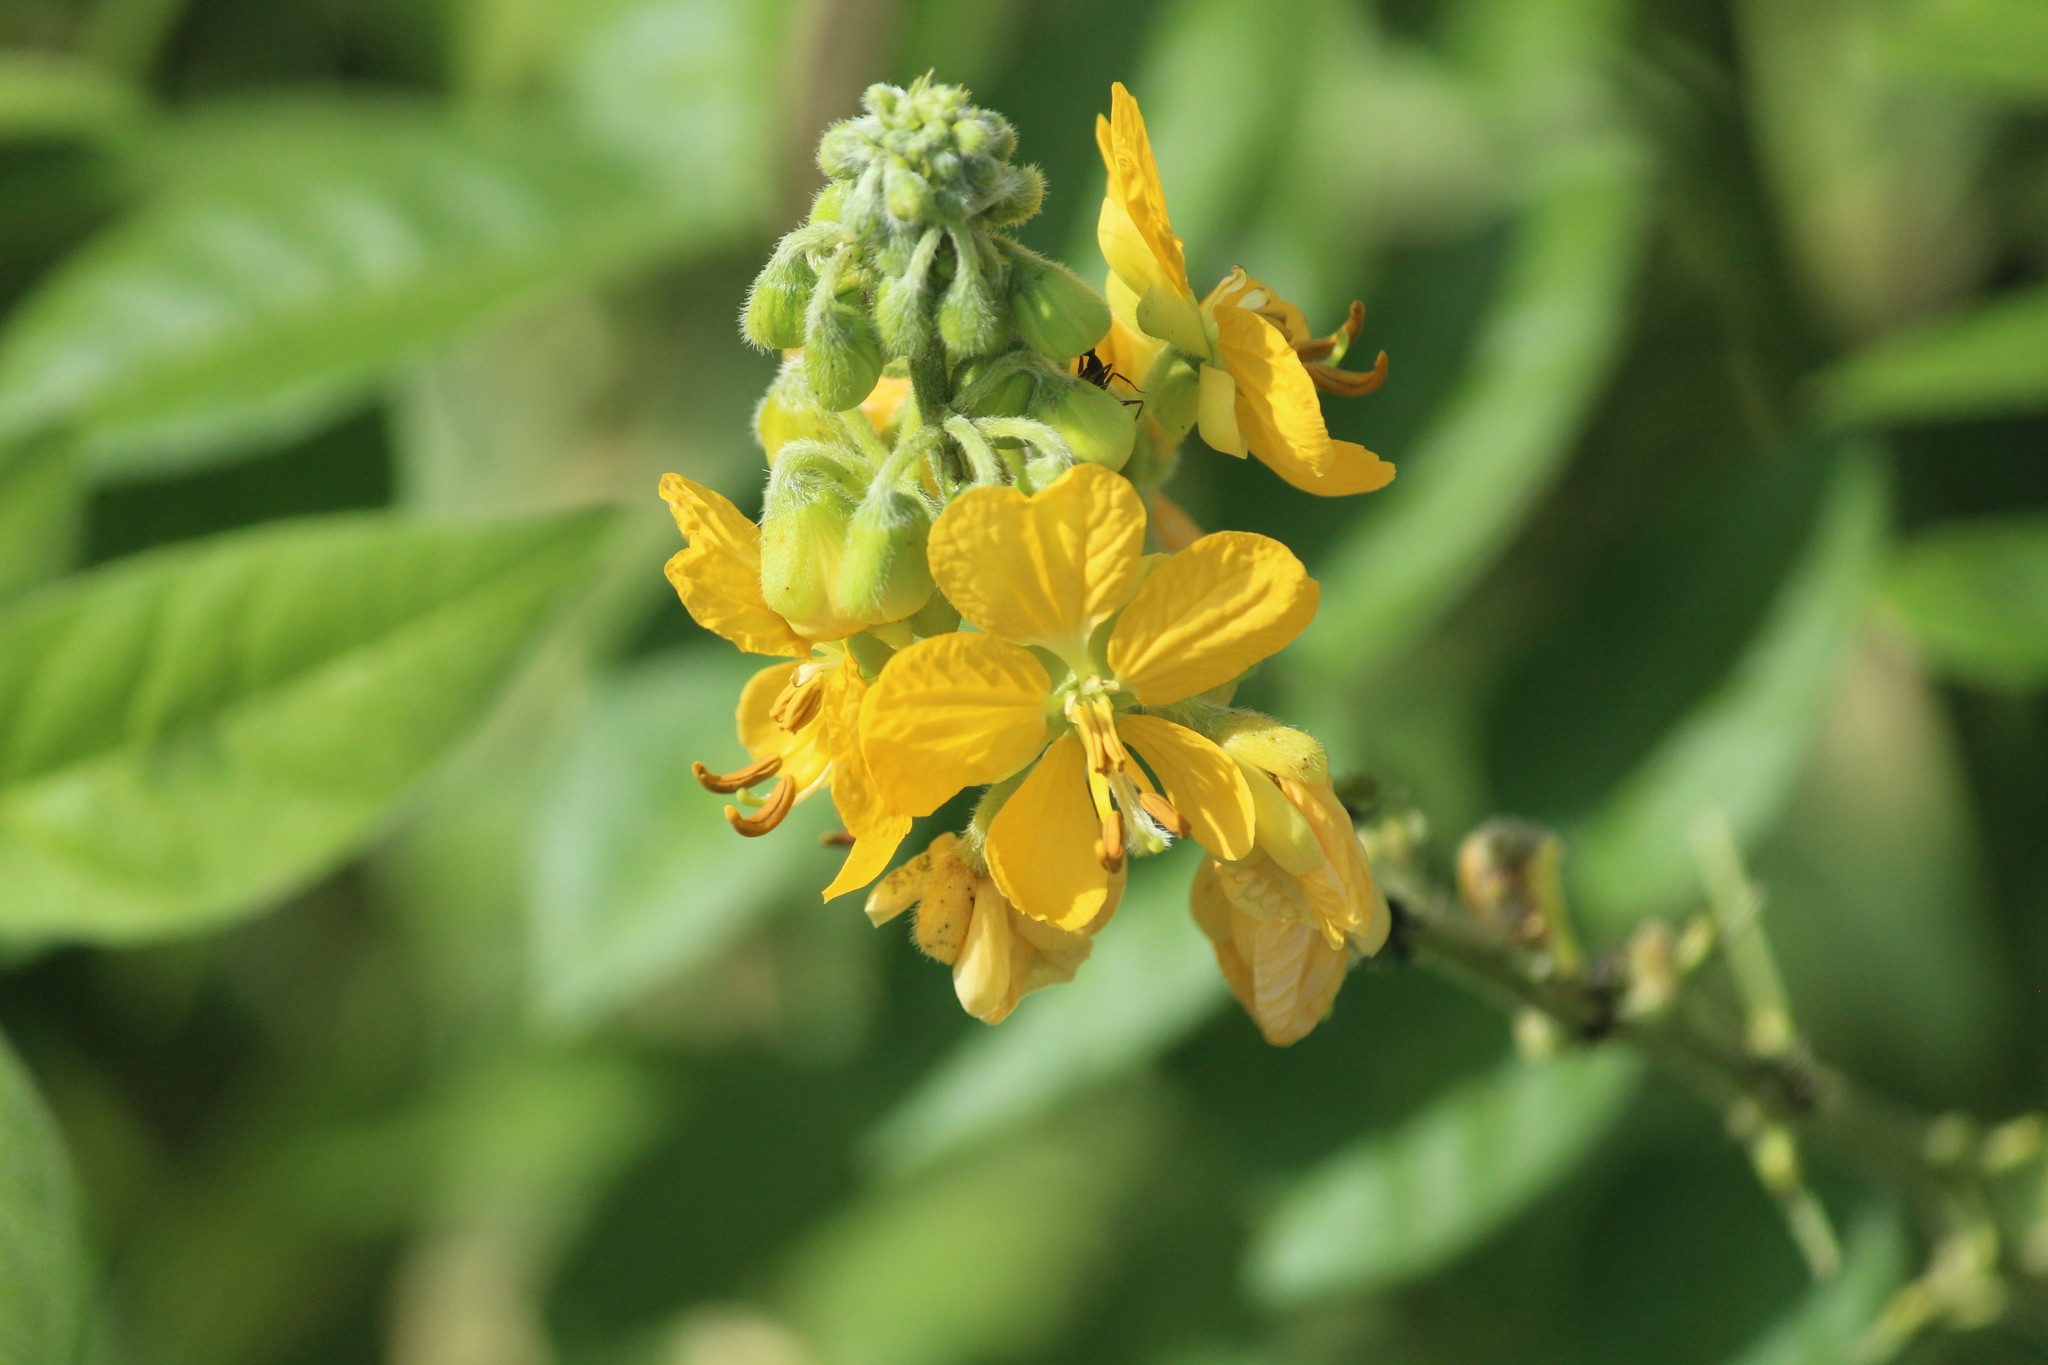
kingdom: Plantae
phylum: Tracheophyta
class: Magnoliopsida
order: Fabales
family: Fabaceae
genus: Senna
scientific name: Senna hirsuta
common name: Woolly senna
